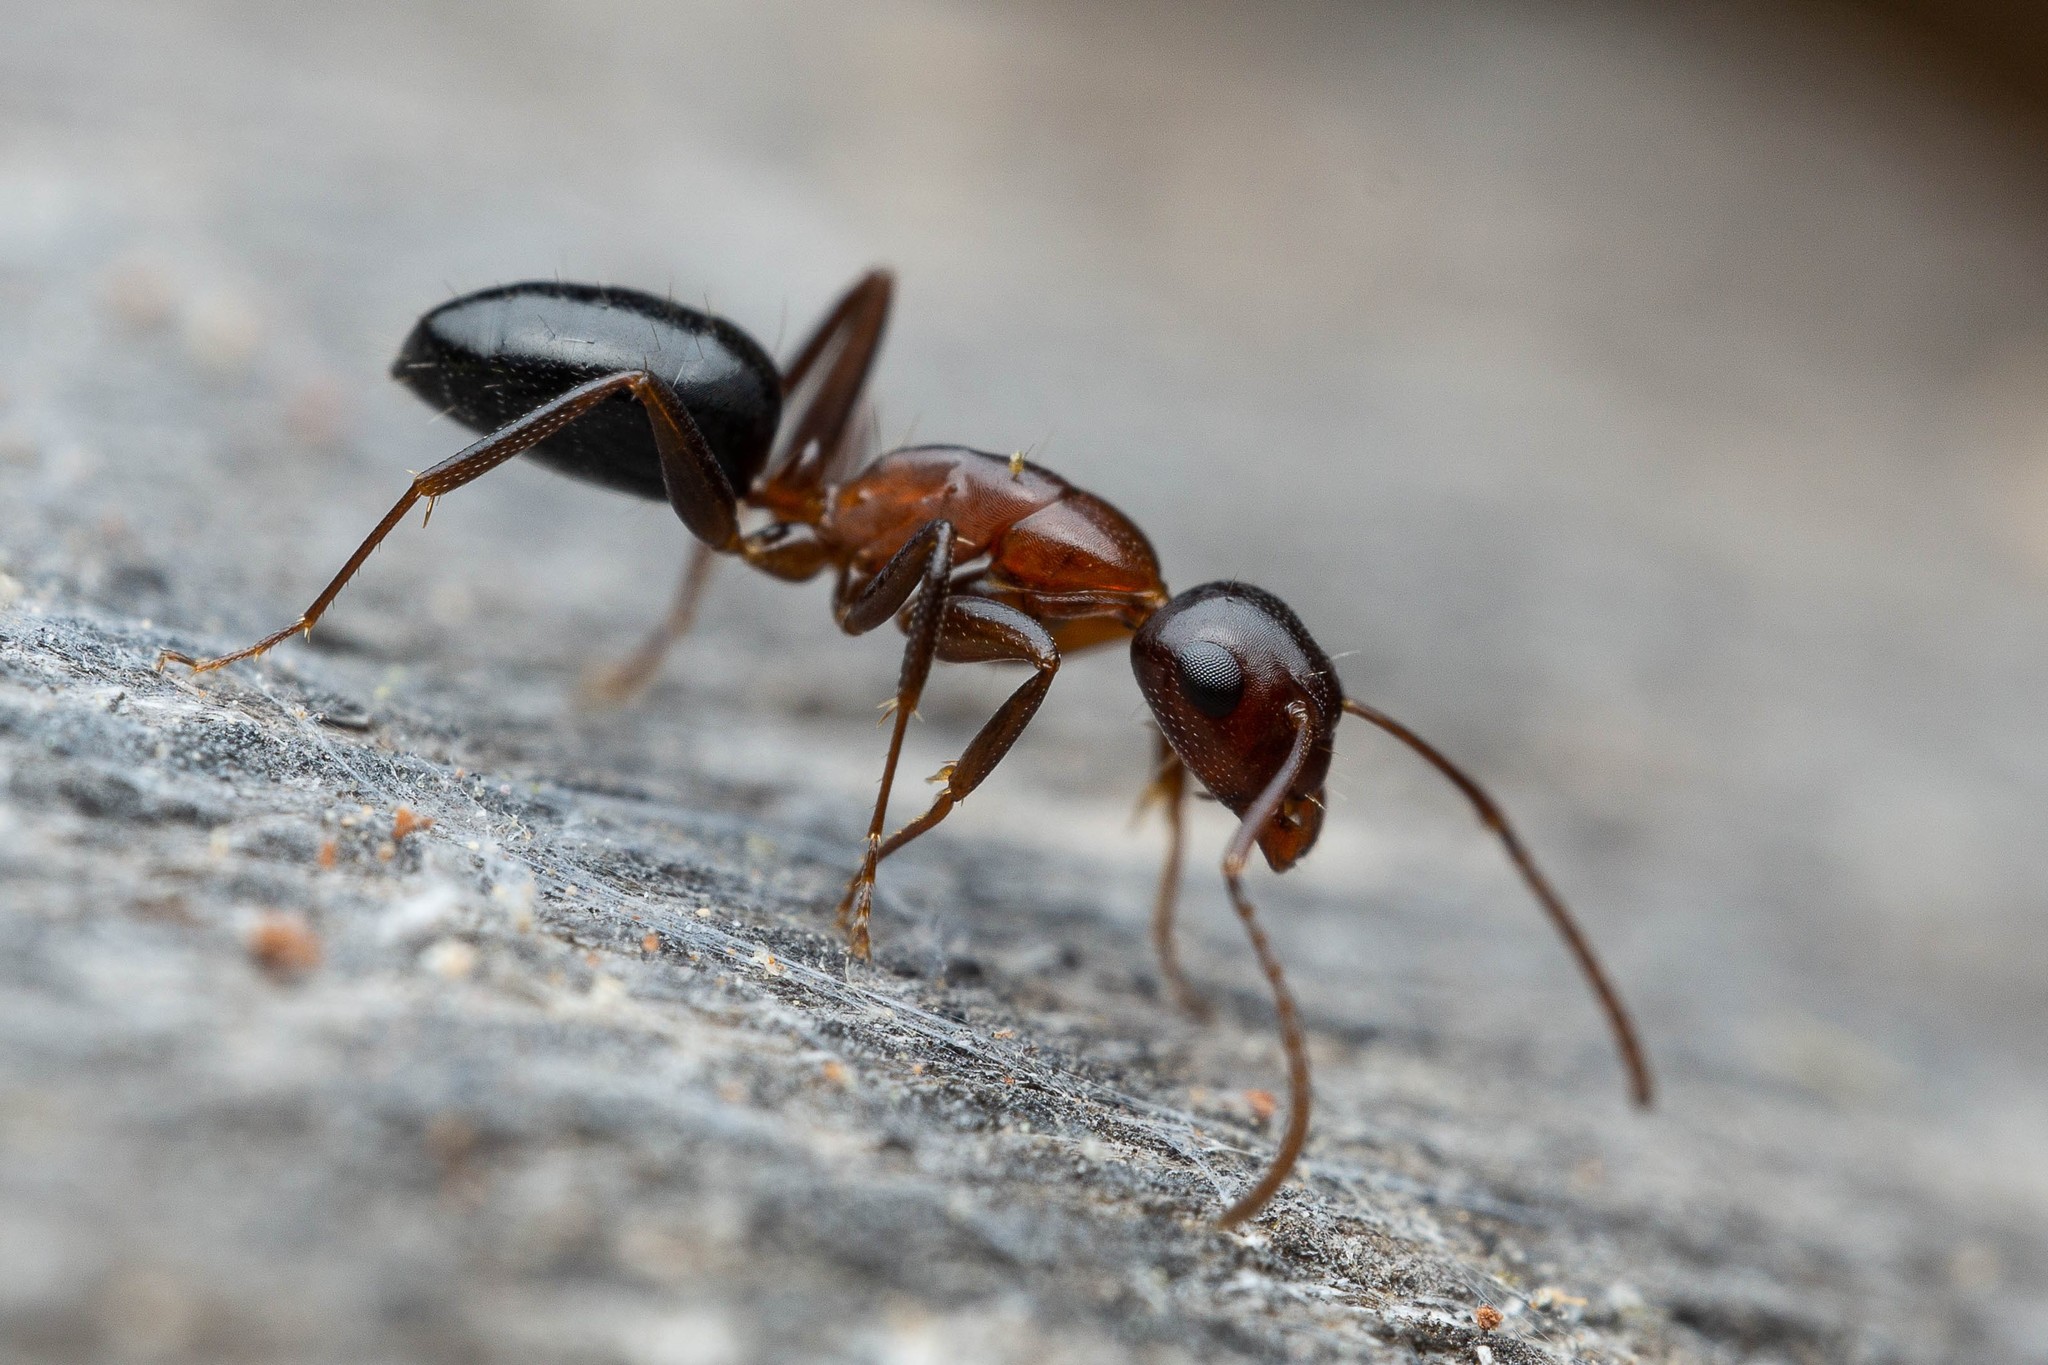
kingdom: Animalia
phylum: Arthropoda
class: Insecta
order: Hymenoptera
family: Formicidae
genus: Camponotus
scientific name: Camponotus sayi
